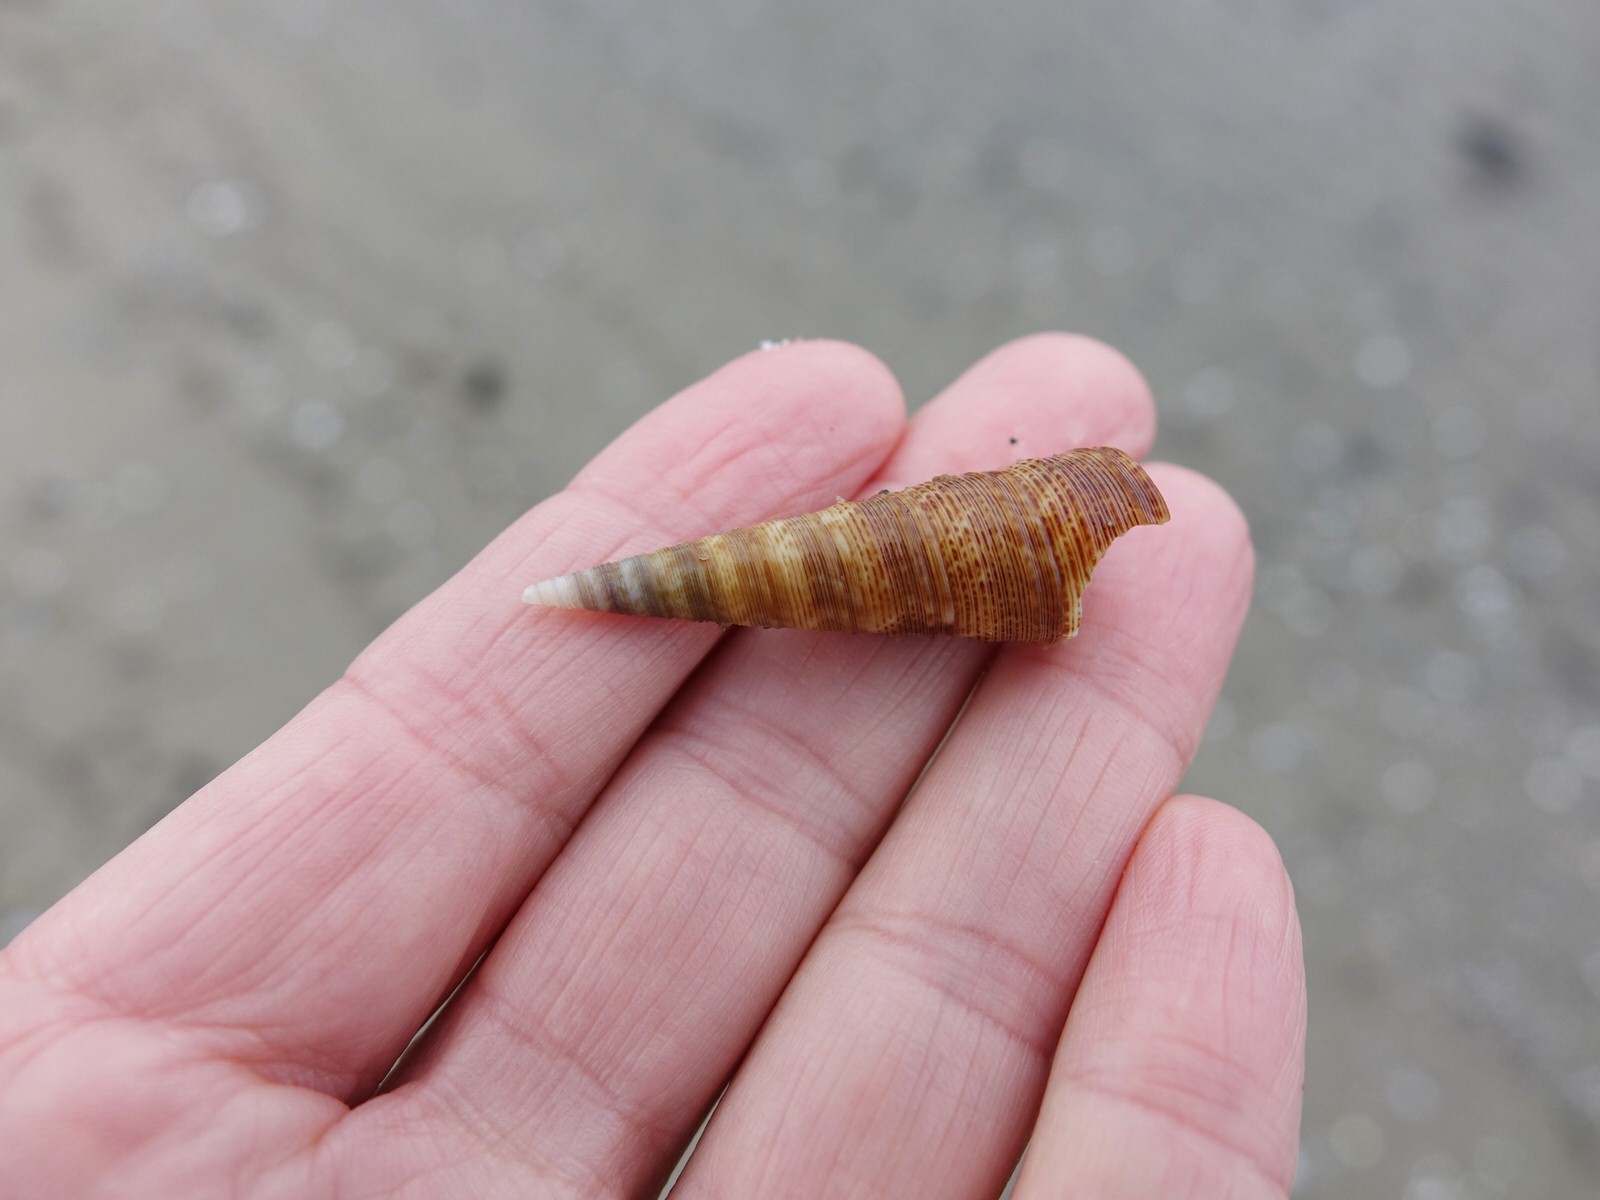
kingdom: Animalia
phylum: Mollusca
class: Gastropoda
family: Turritellidae
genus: Maoricolpus
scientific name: Maoricolpus roseus
